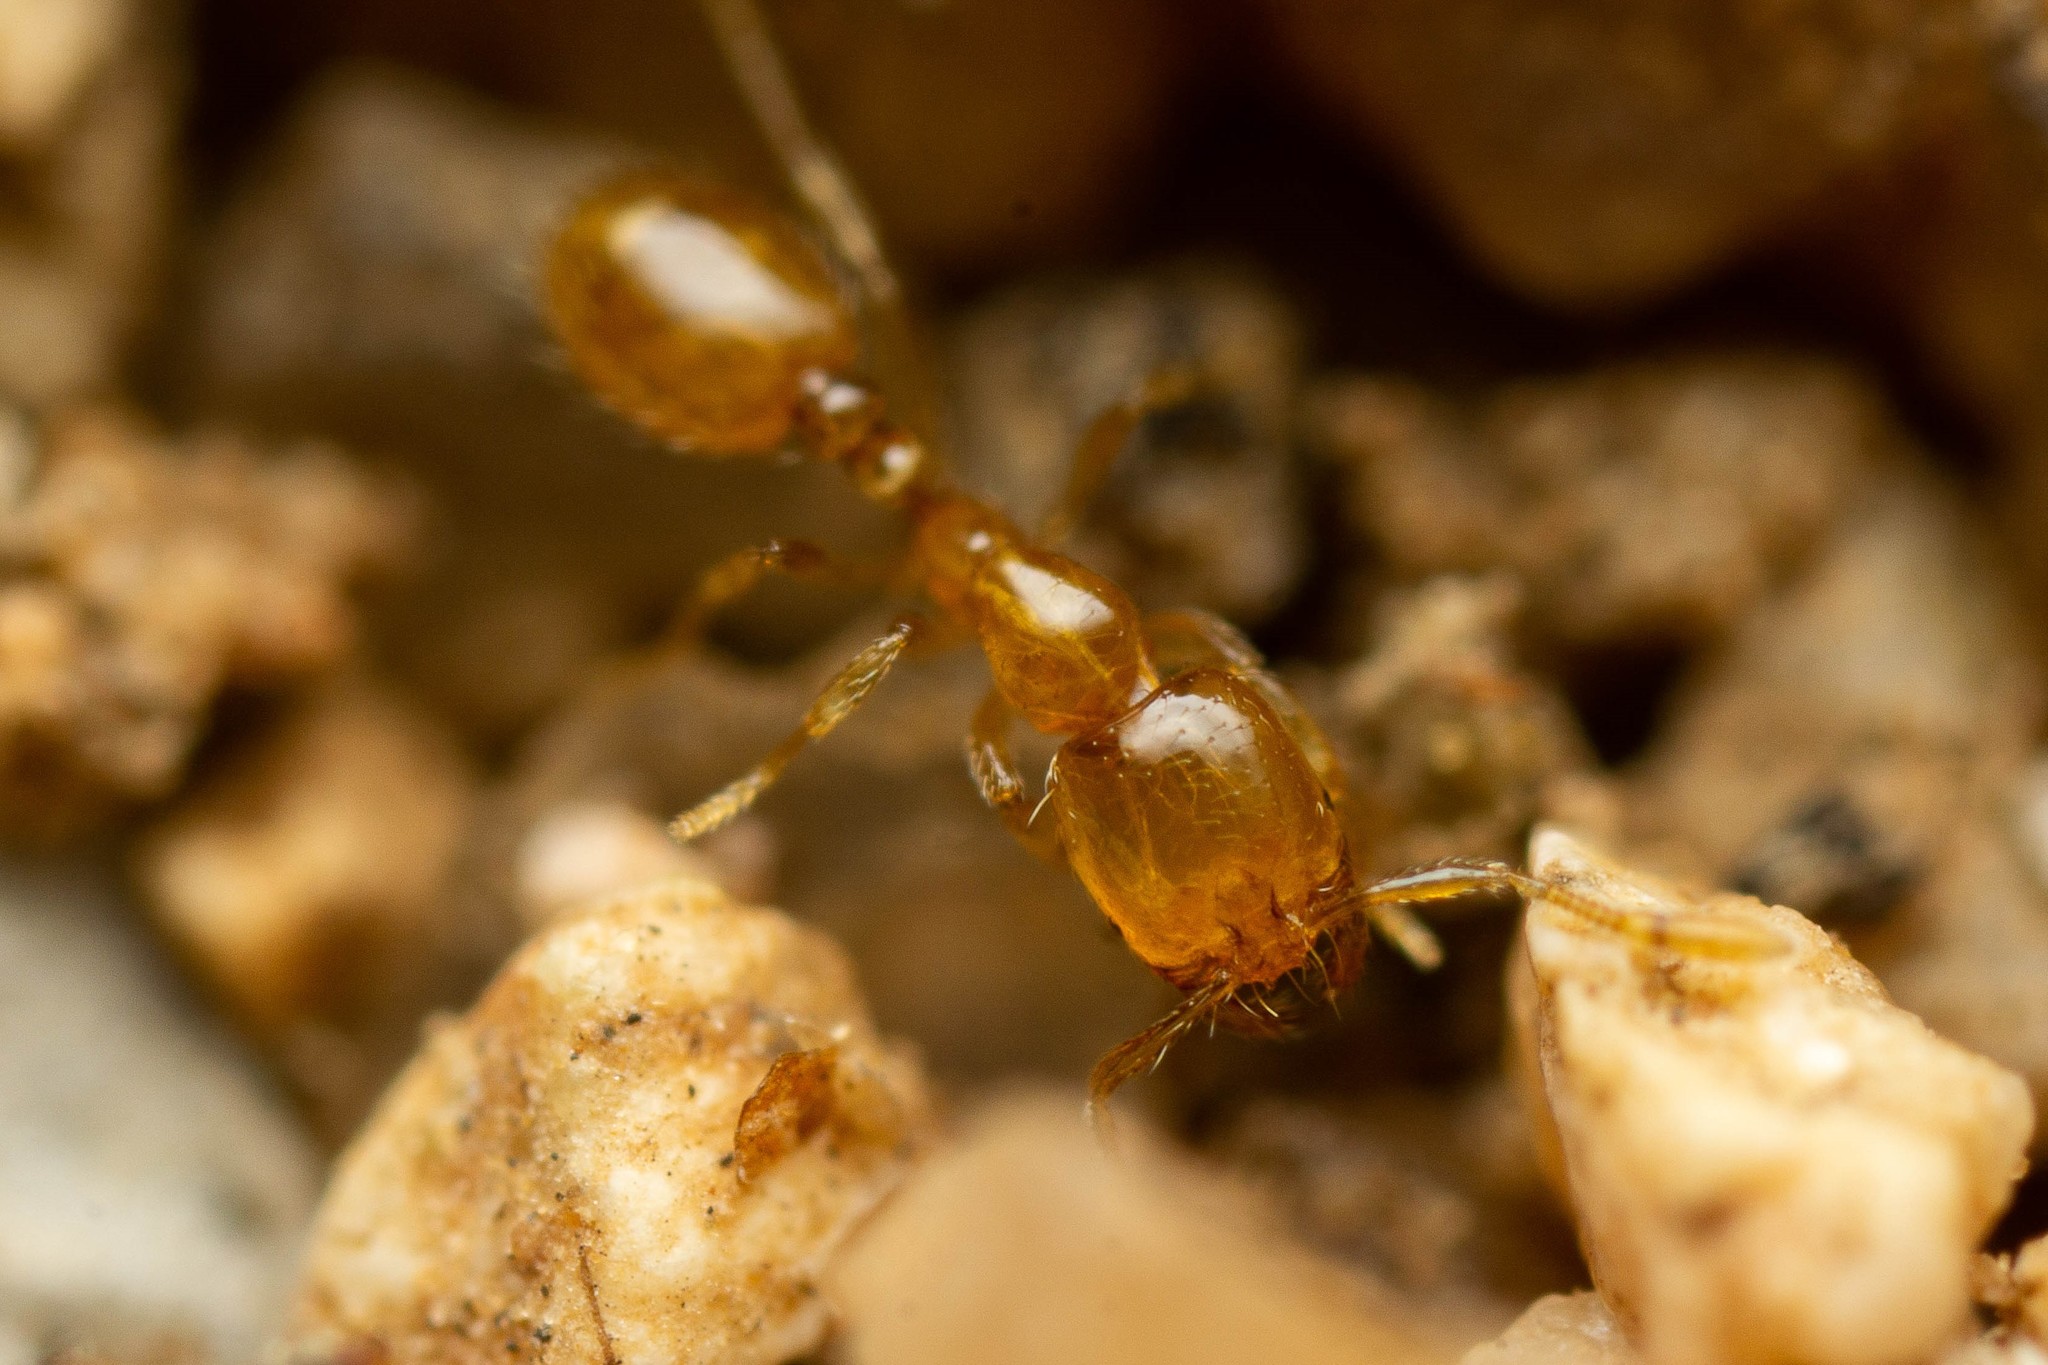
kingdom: Animalia
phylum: Arthropoda
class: Insecta
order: Hymenoptera
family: Formicidae
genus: Solenopsis
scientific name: Solenopsis krockowi
